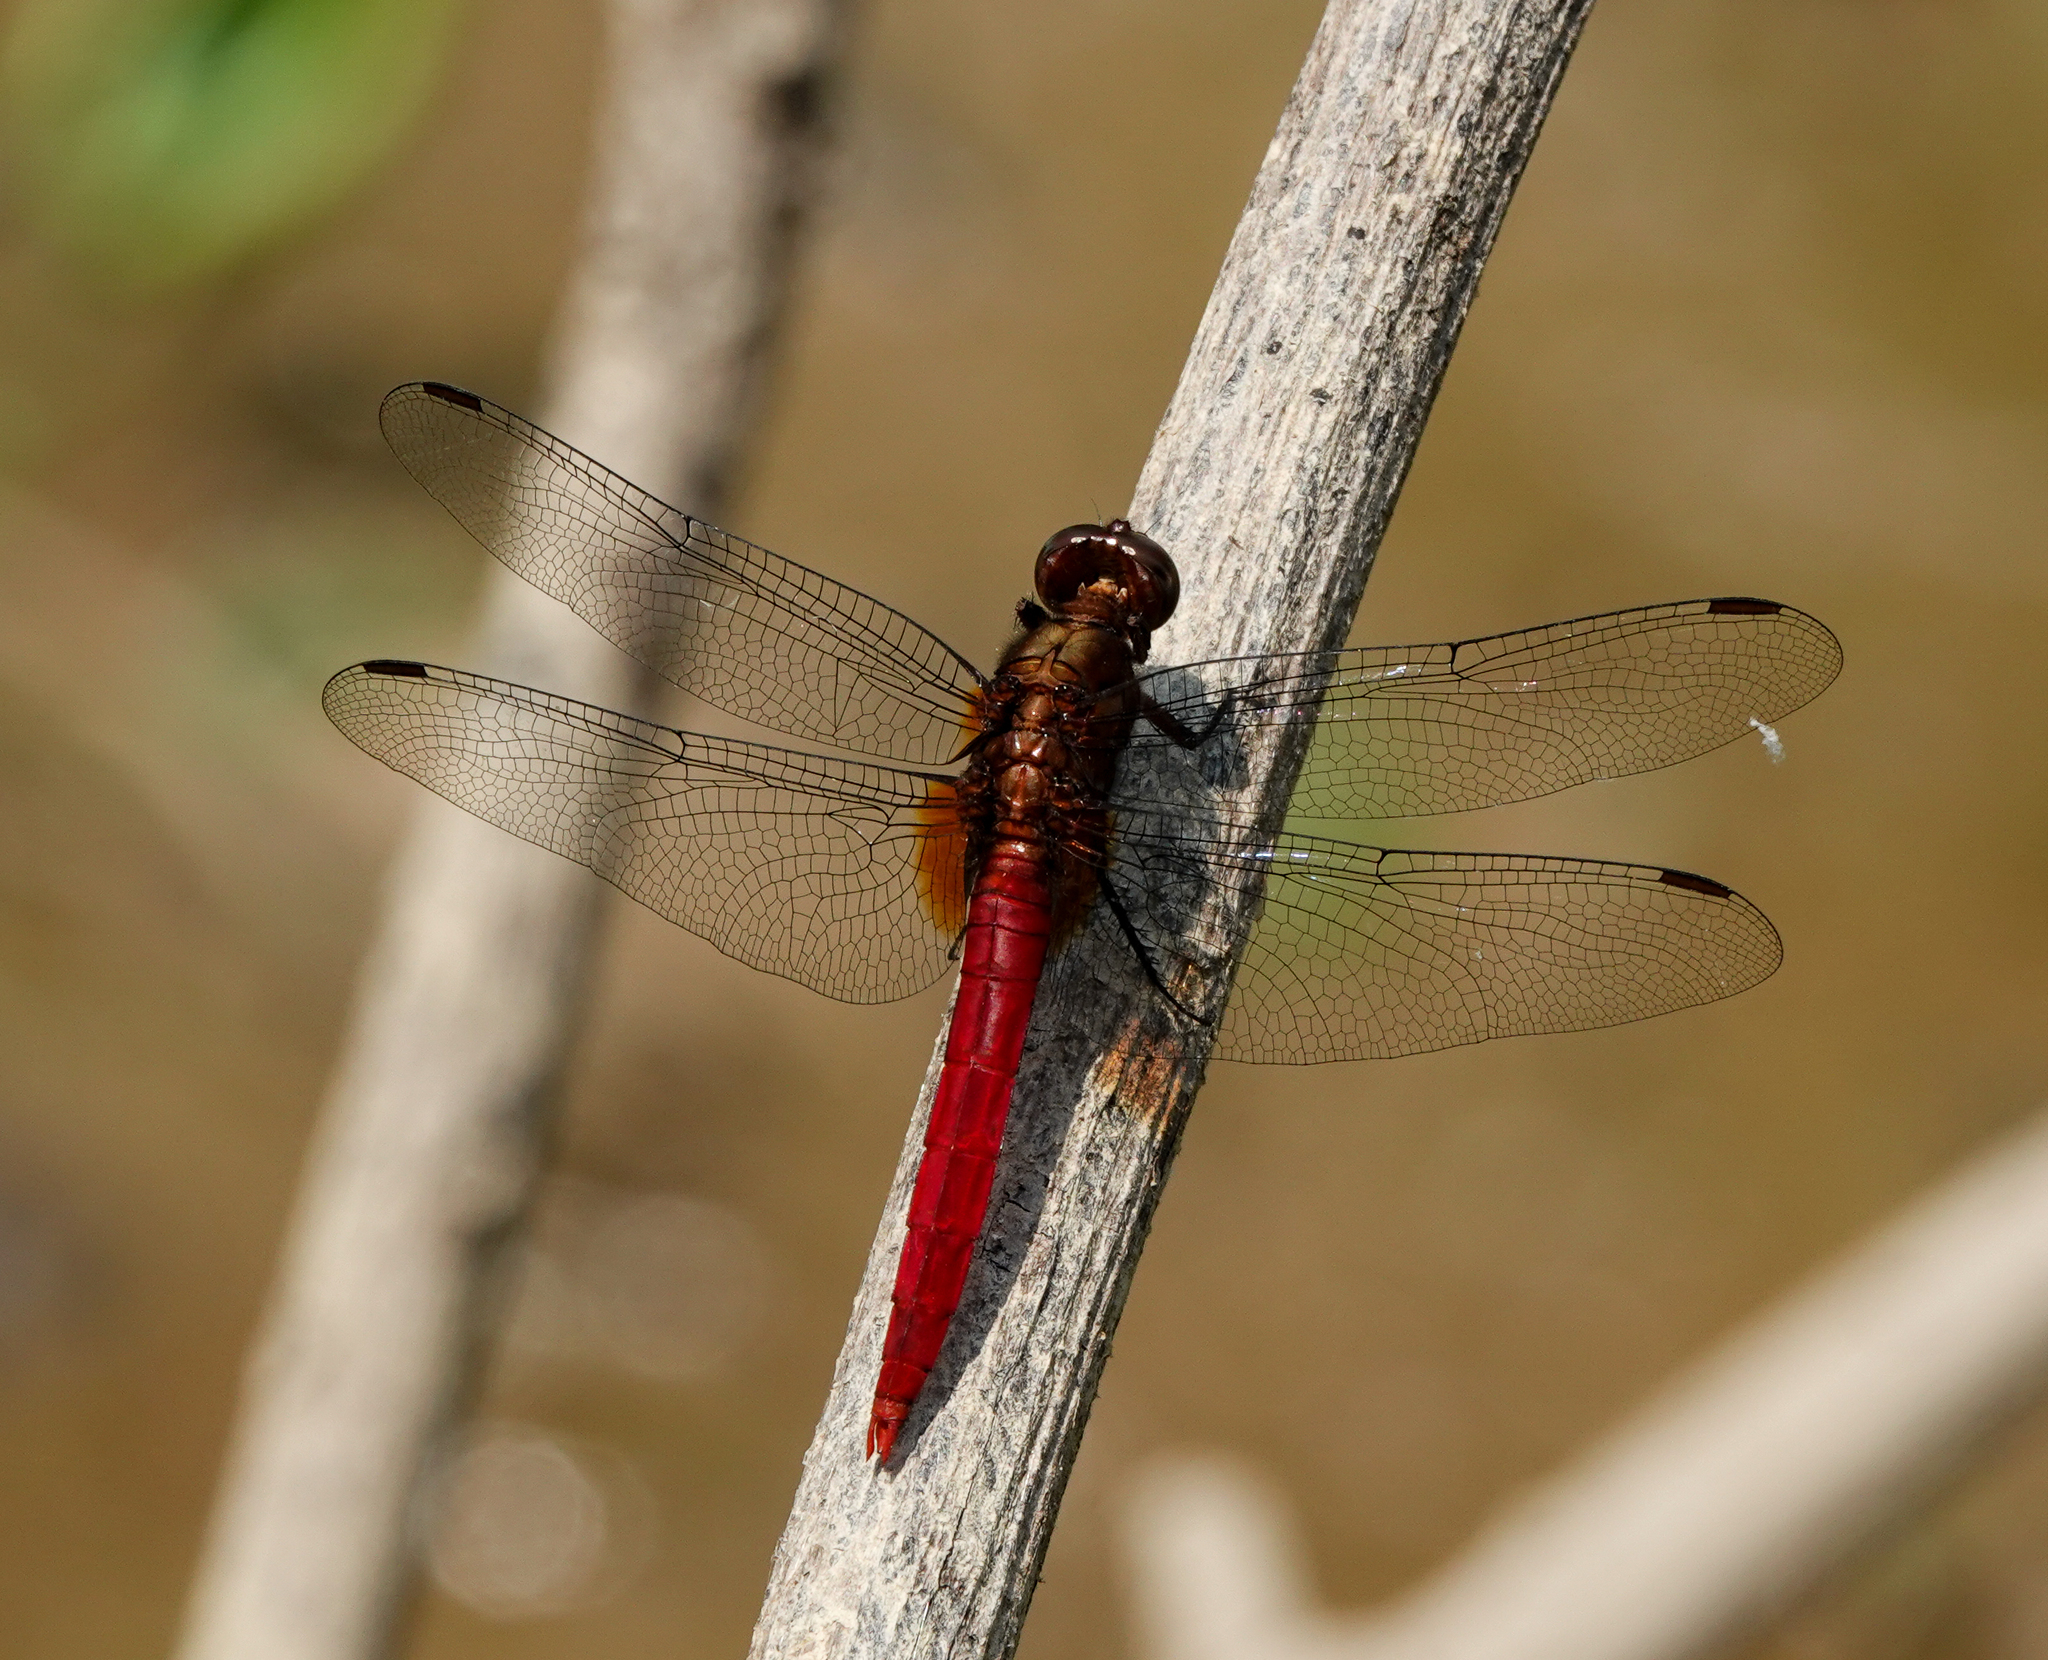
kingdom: Animalia
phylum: Arthropoda
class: Insecta
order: Odonata
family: Libellulidae
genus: Orthetrum
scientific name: Orthetrum chrysis
